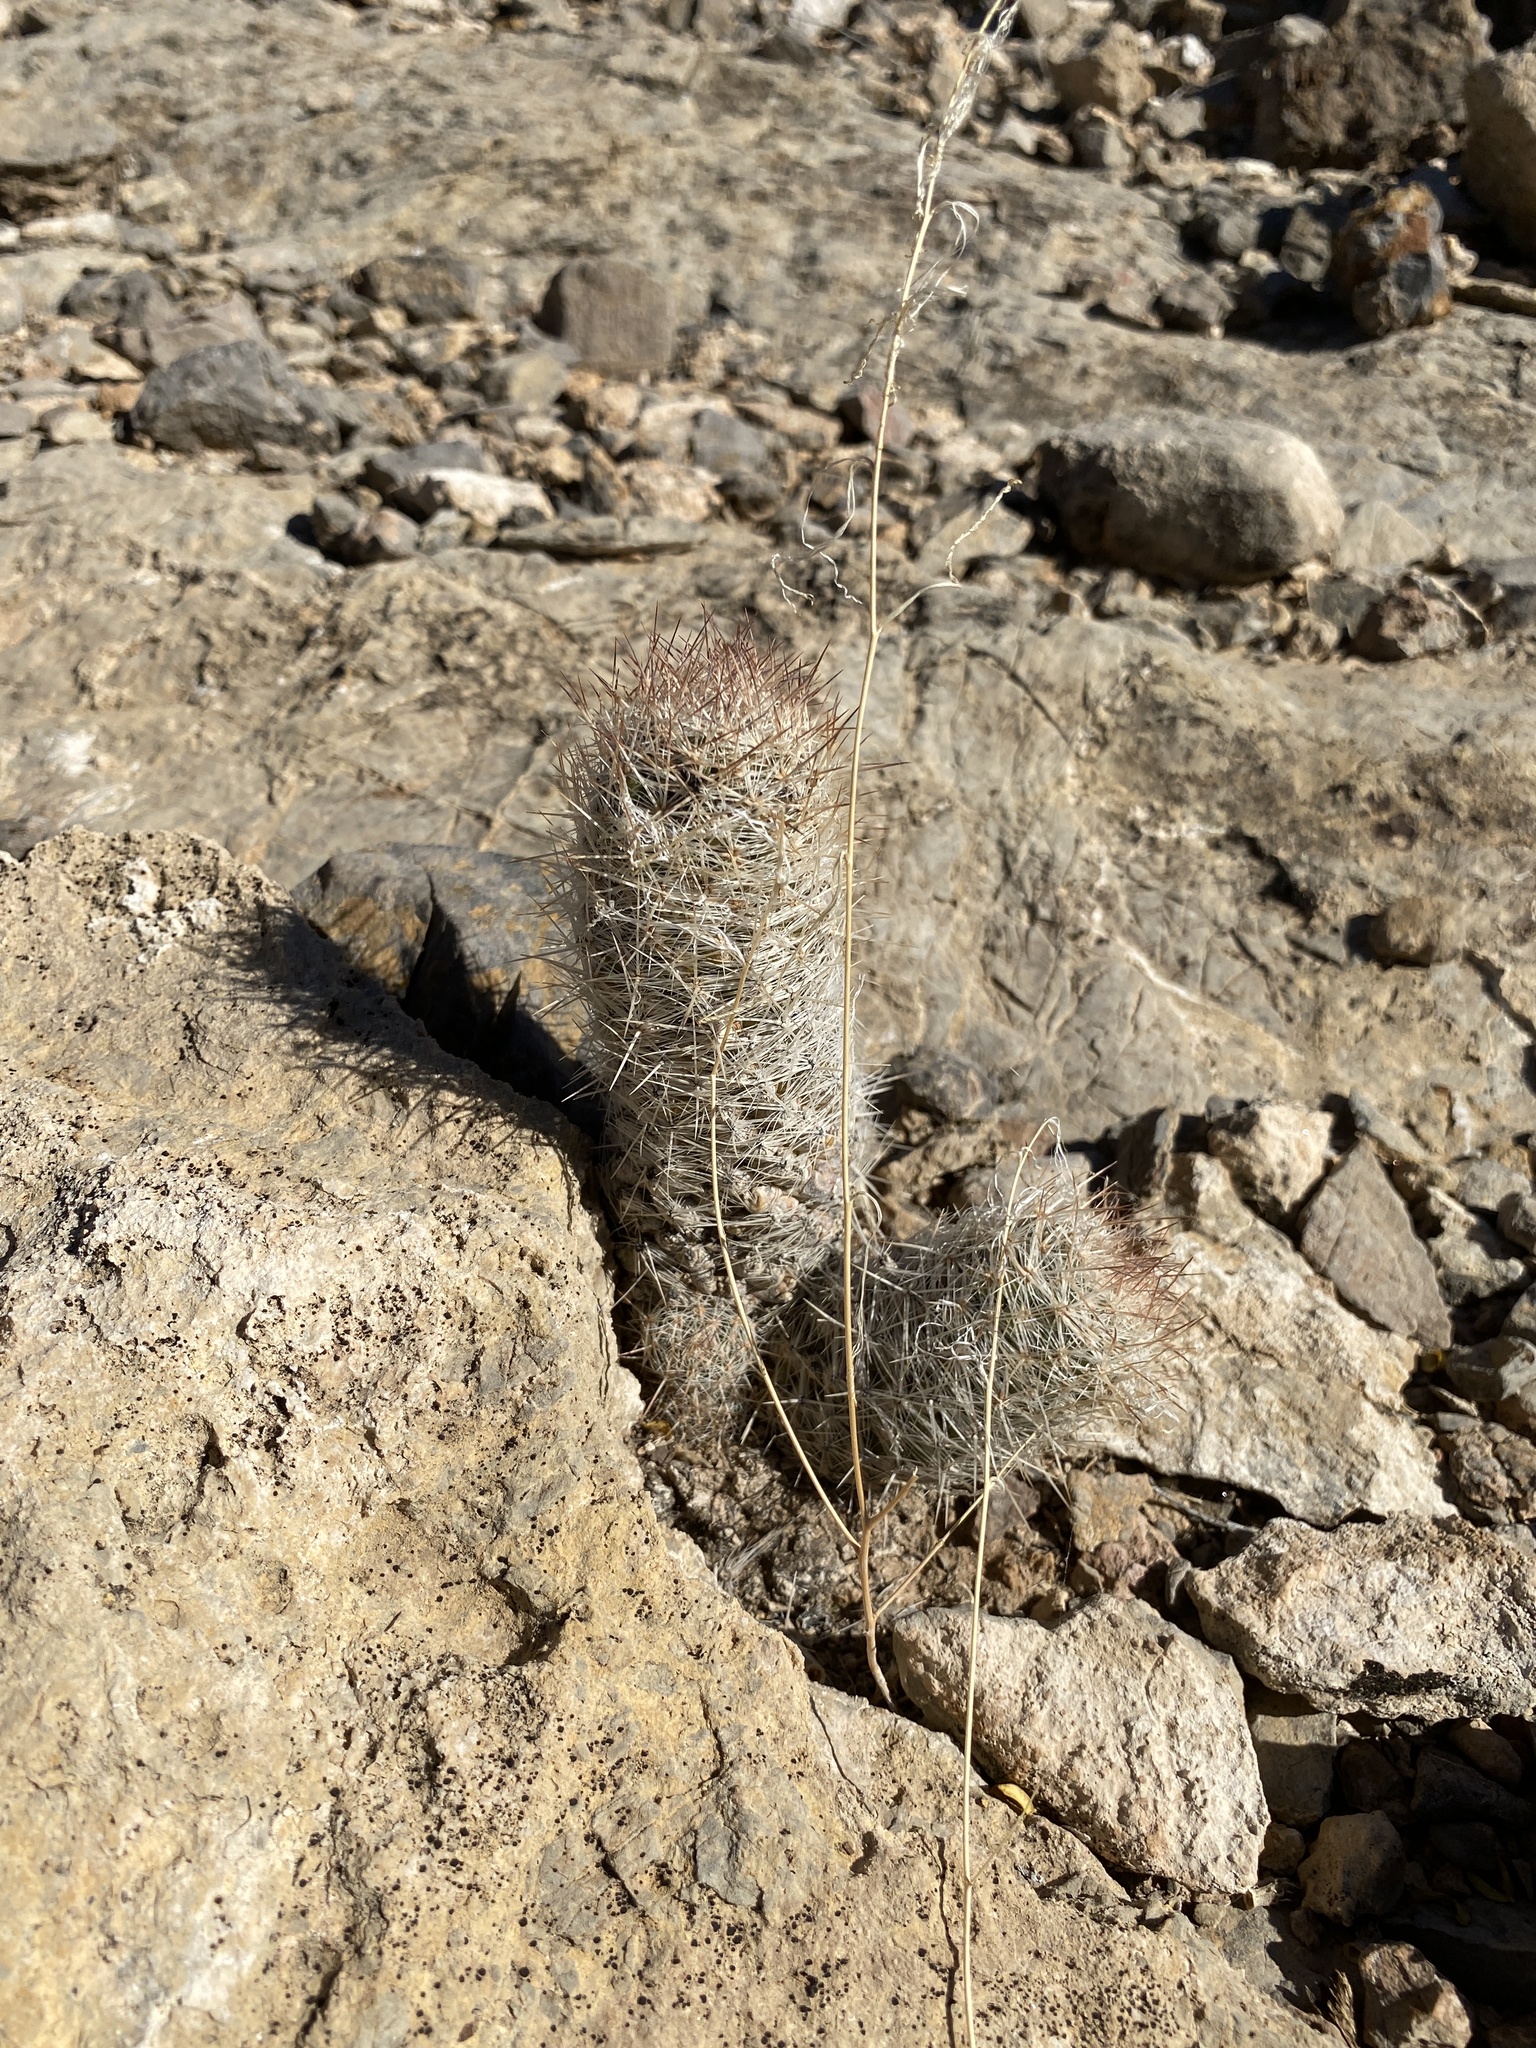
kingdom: Plantae
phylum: Tracheophyta
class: Magnoliopsida
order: Caryophyllales
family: Cactaceae
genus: Pelecyphora
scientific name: Pelecyphora tuberculosa
